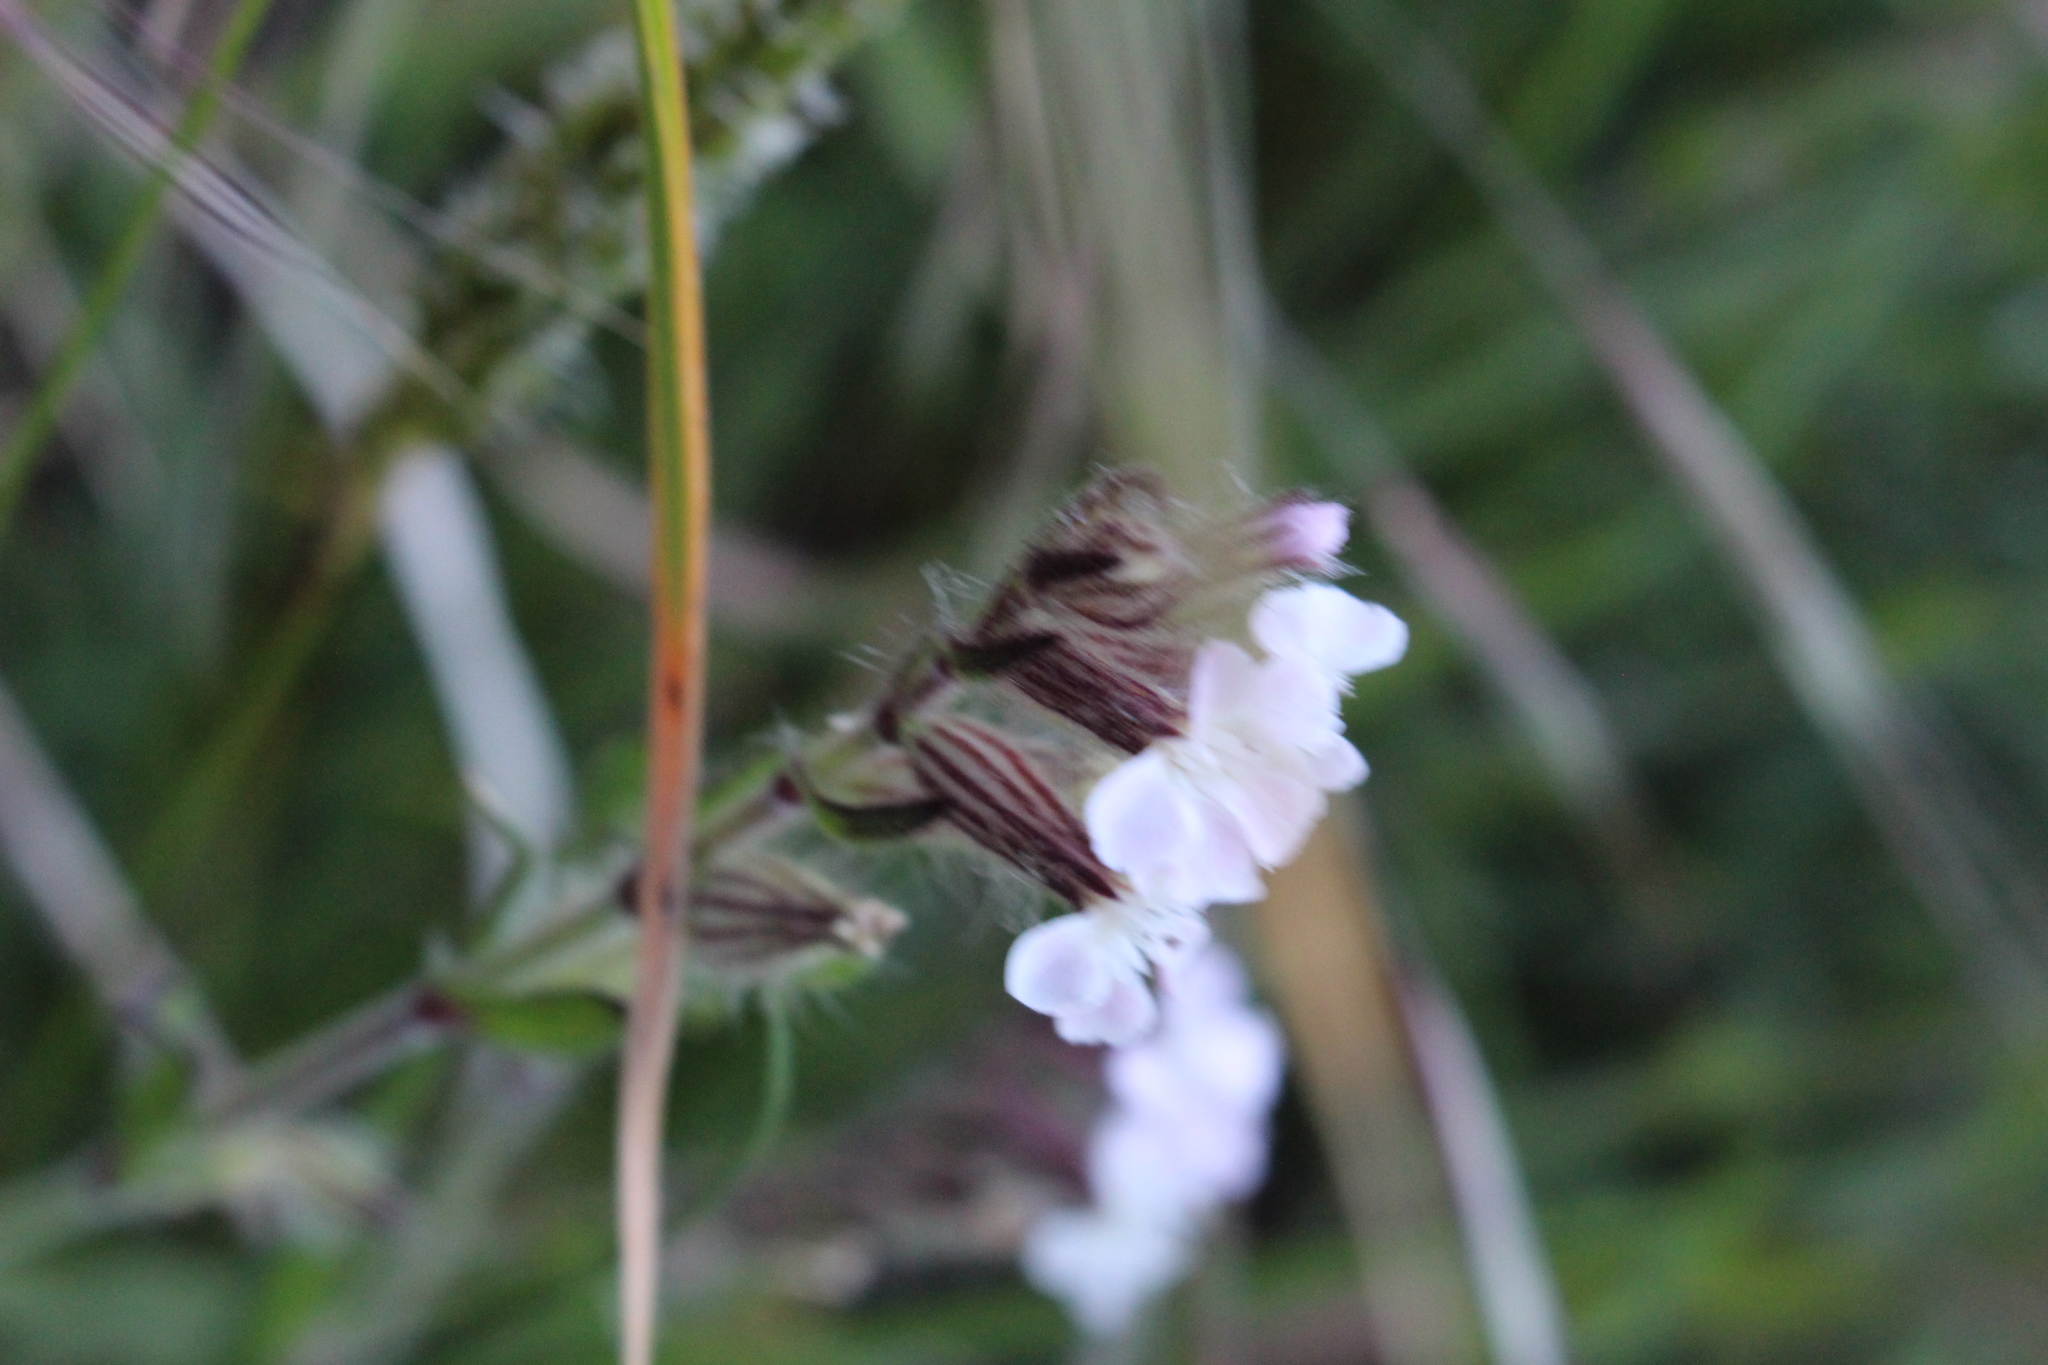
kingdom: Plantae
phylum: Tracheophyta
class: Magnoliopsida
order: Caryophyllales
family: Caryophyllaceae
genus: Silene
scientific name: Silene gallica
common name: Small-flowered catchfly
